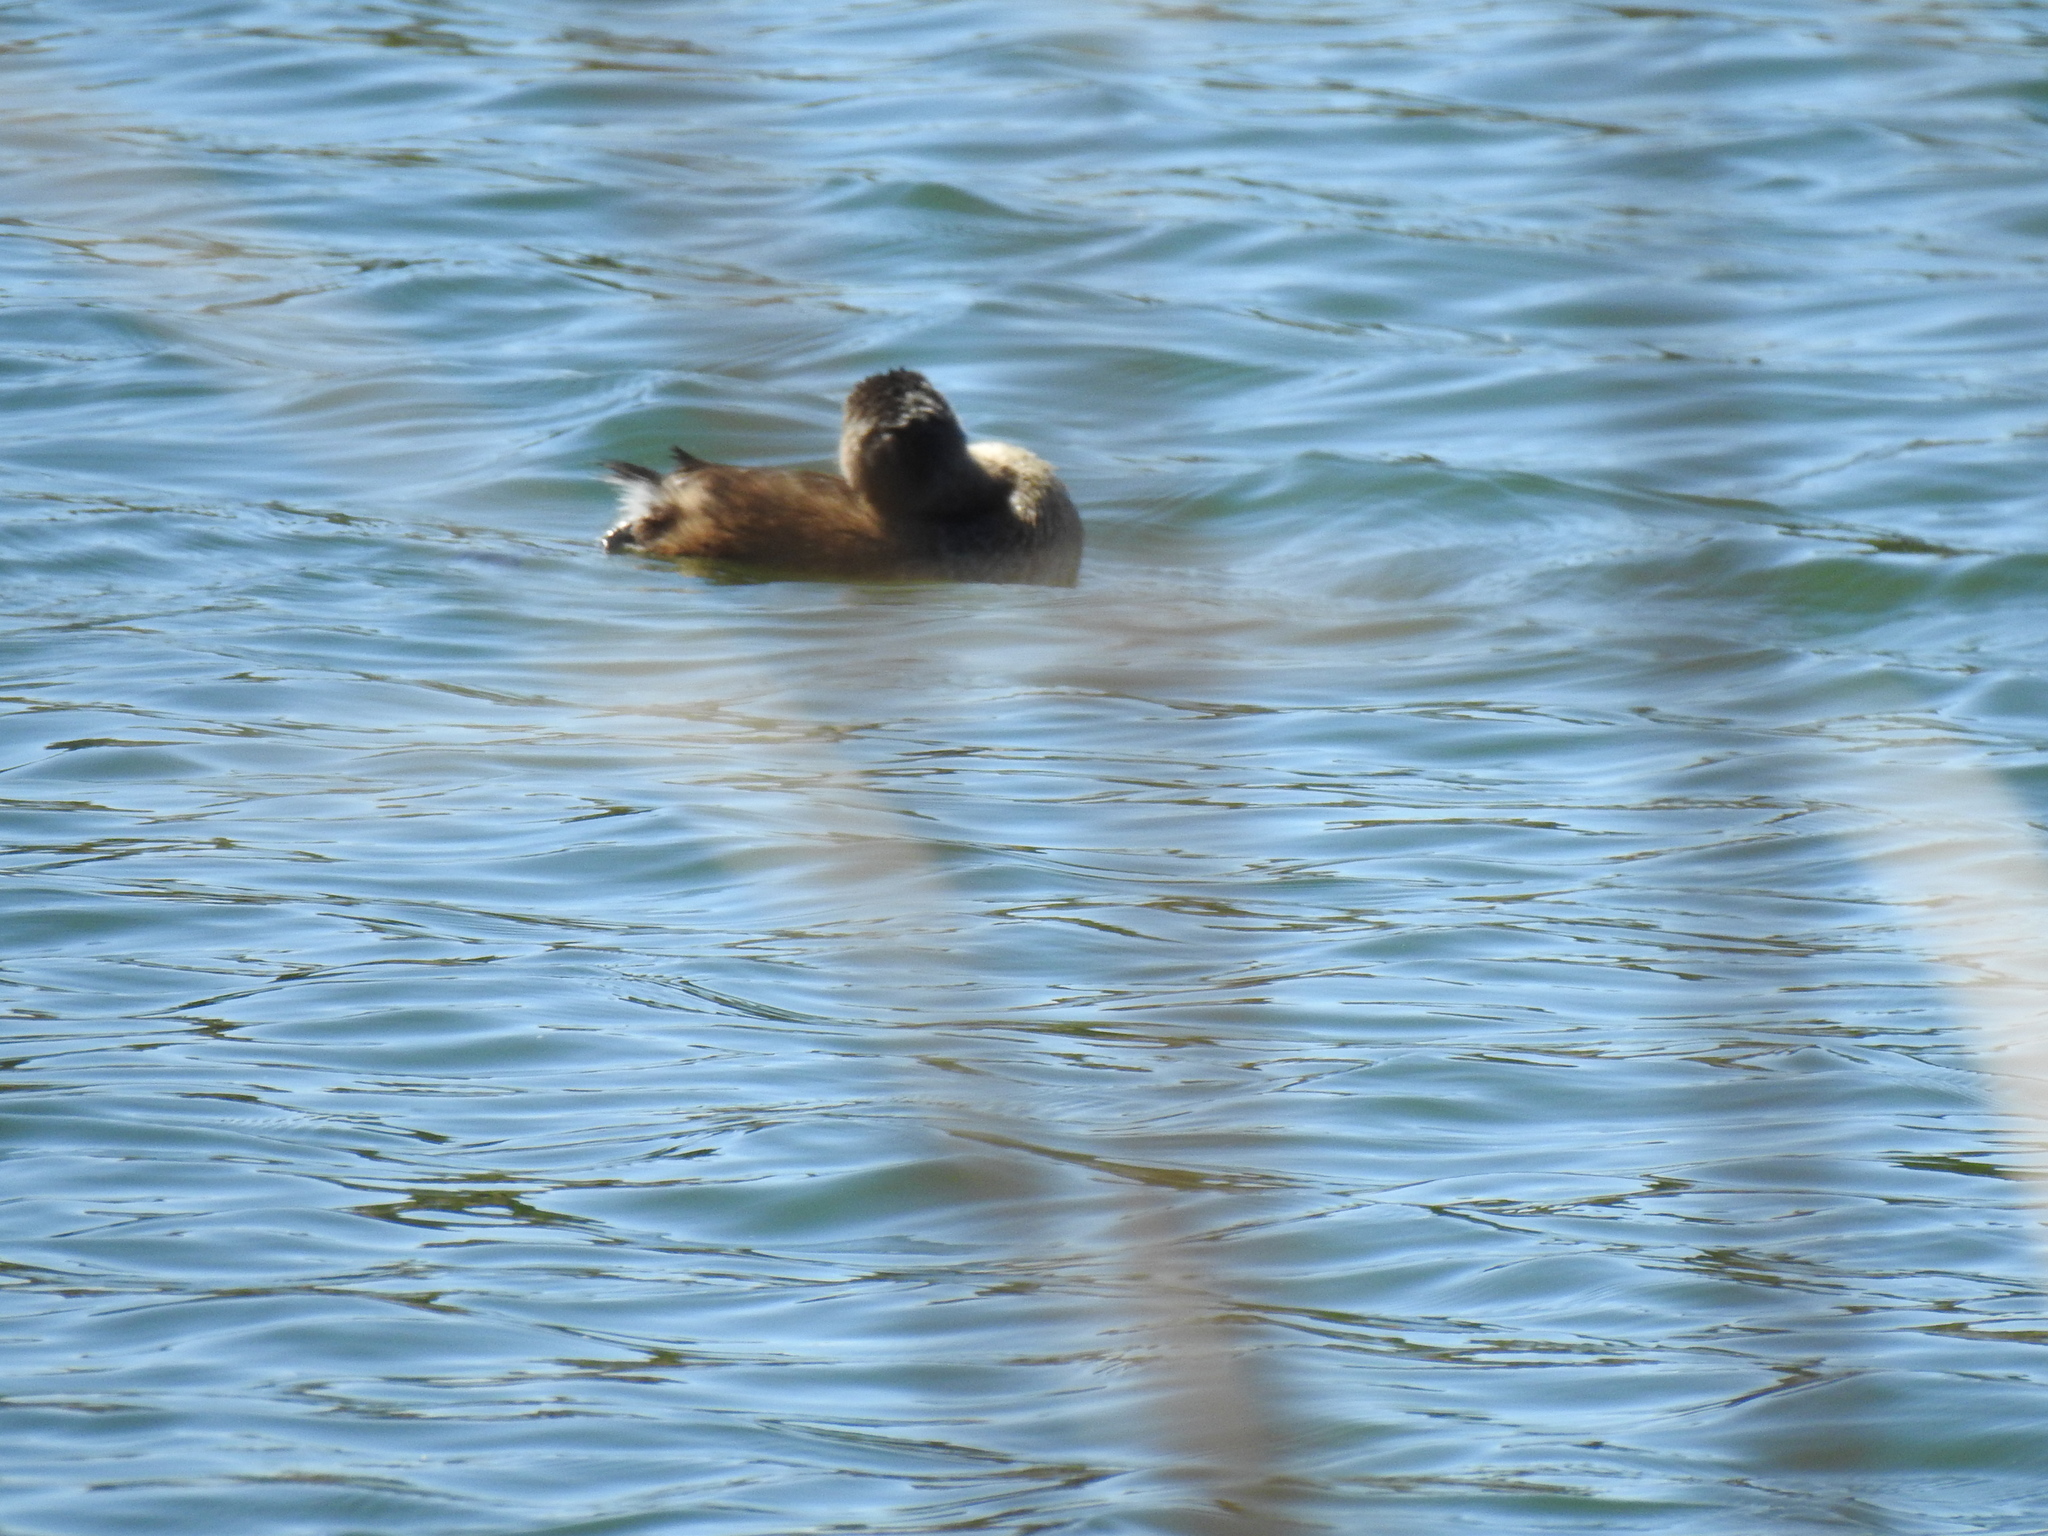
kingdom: Animalia
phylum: Chordata
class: Aves
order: Podicipediformes
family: Podicipedidae
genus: Podilymbus
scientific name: Podilymbus podiceps
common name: Pied-billed grebe
